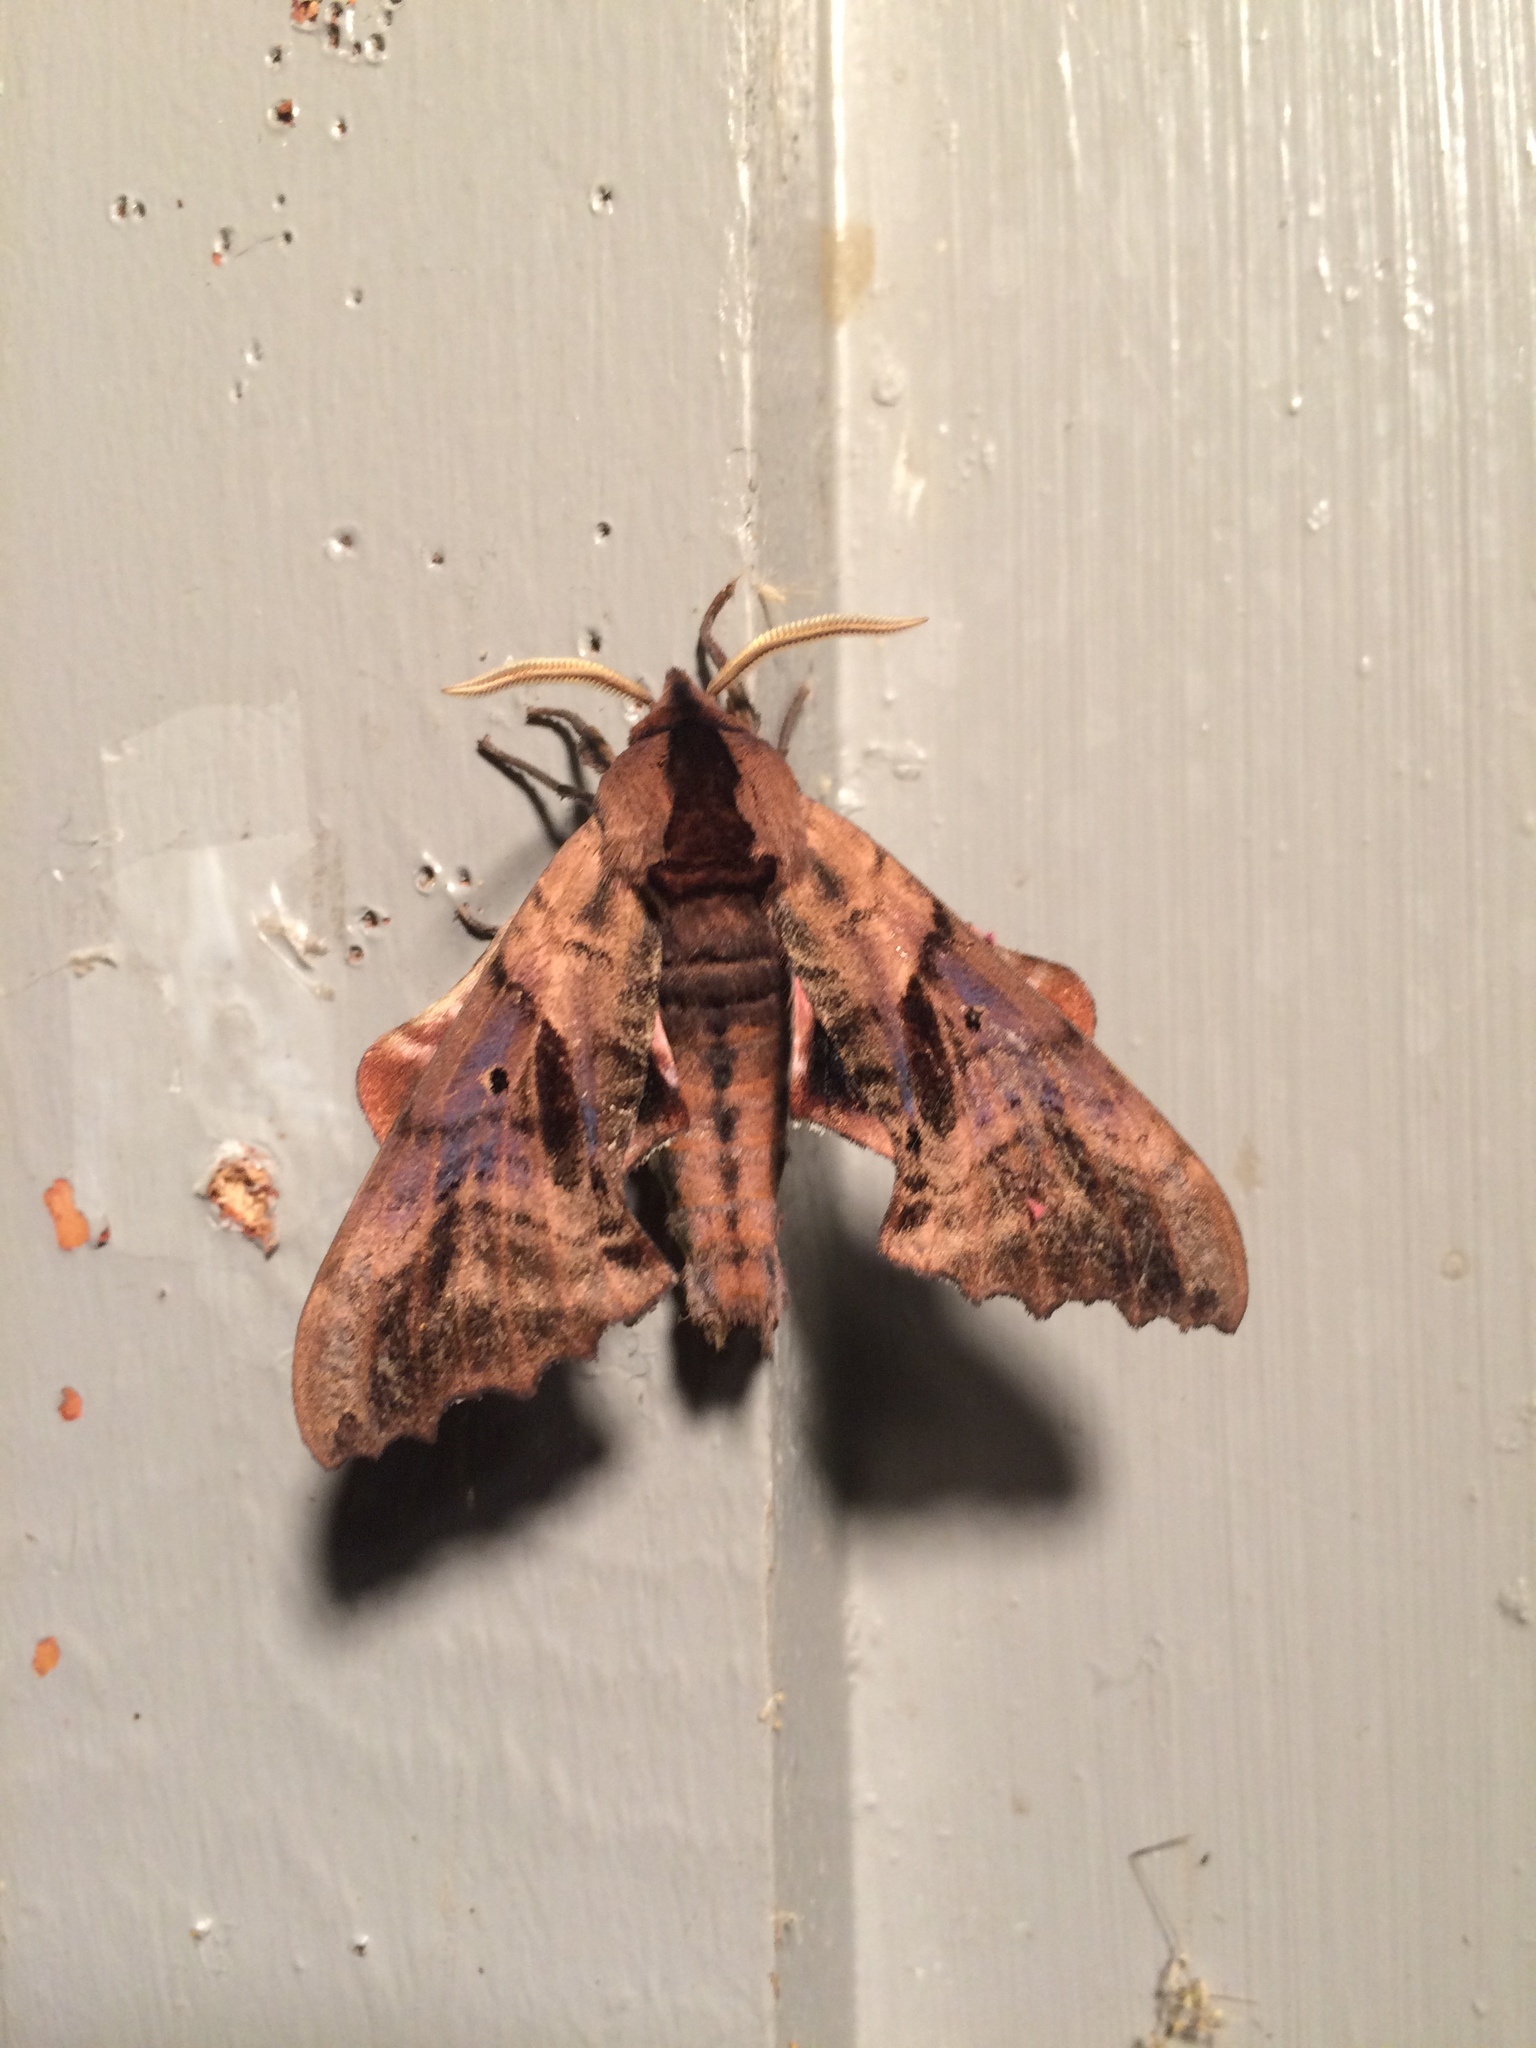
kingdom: Animalia
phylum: Arthropoda
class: Insecta
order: Lepidoptera
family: Sphingidae
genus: Paonias
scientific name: Paonias excaecata
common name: Blind-eyed sphinx
